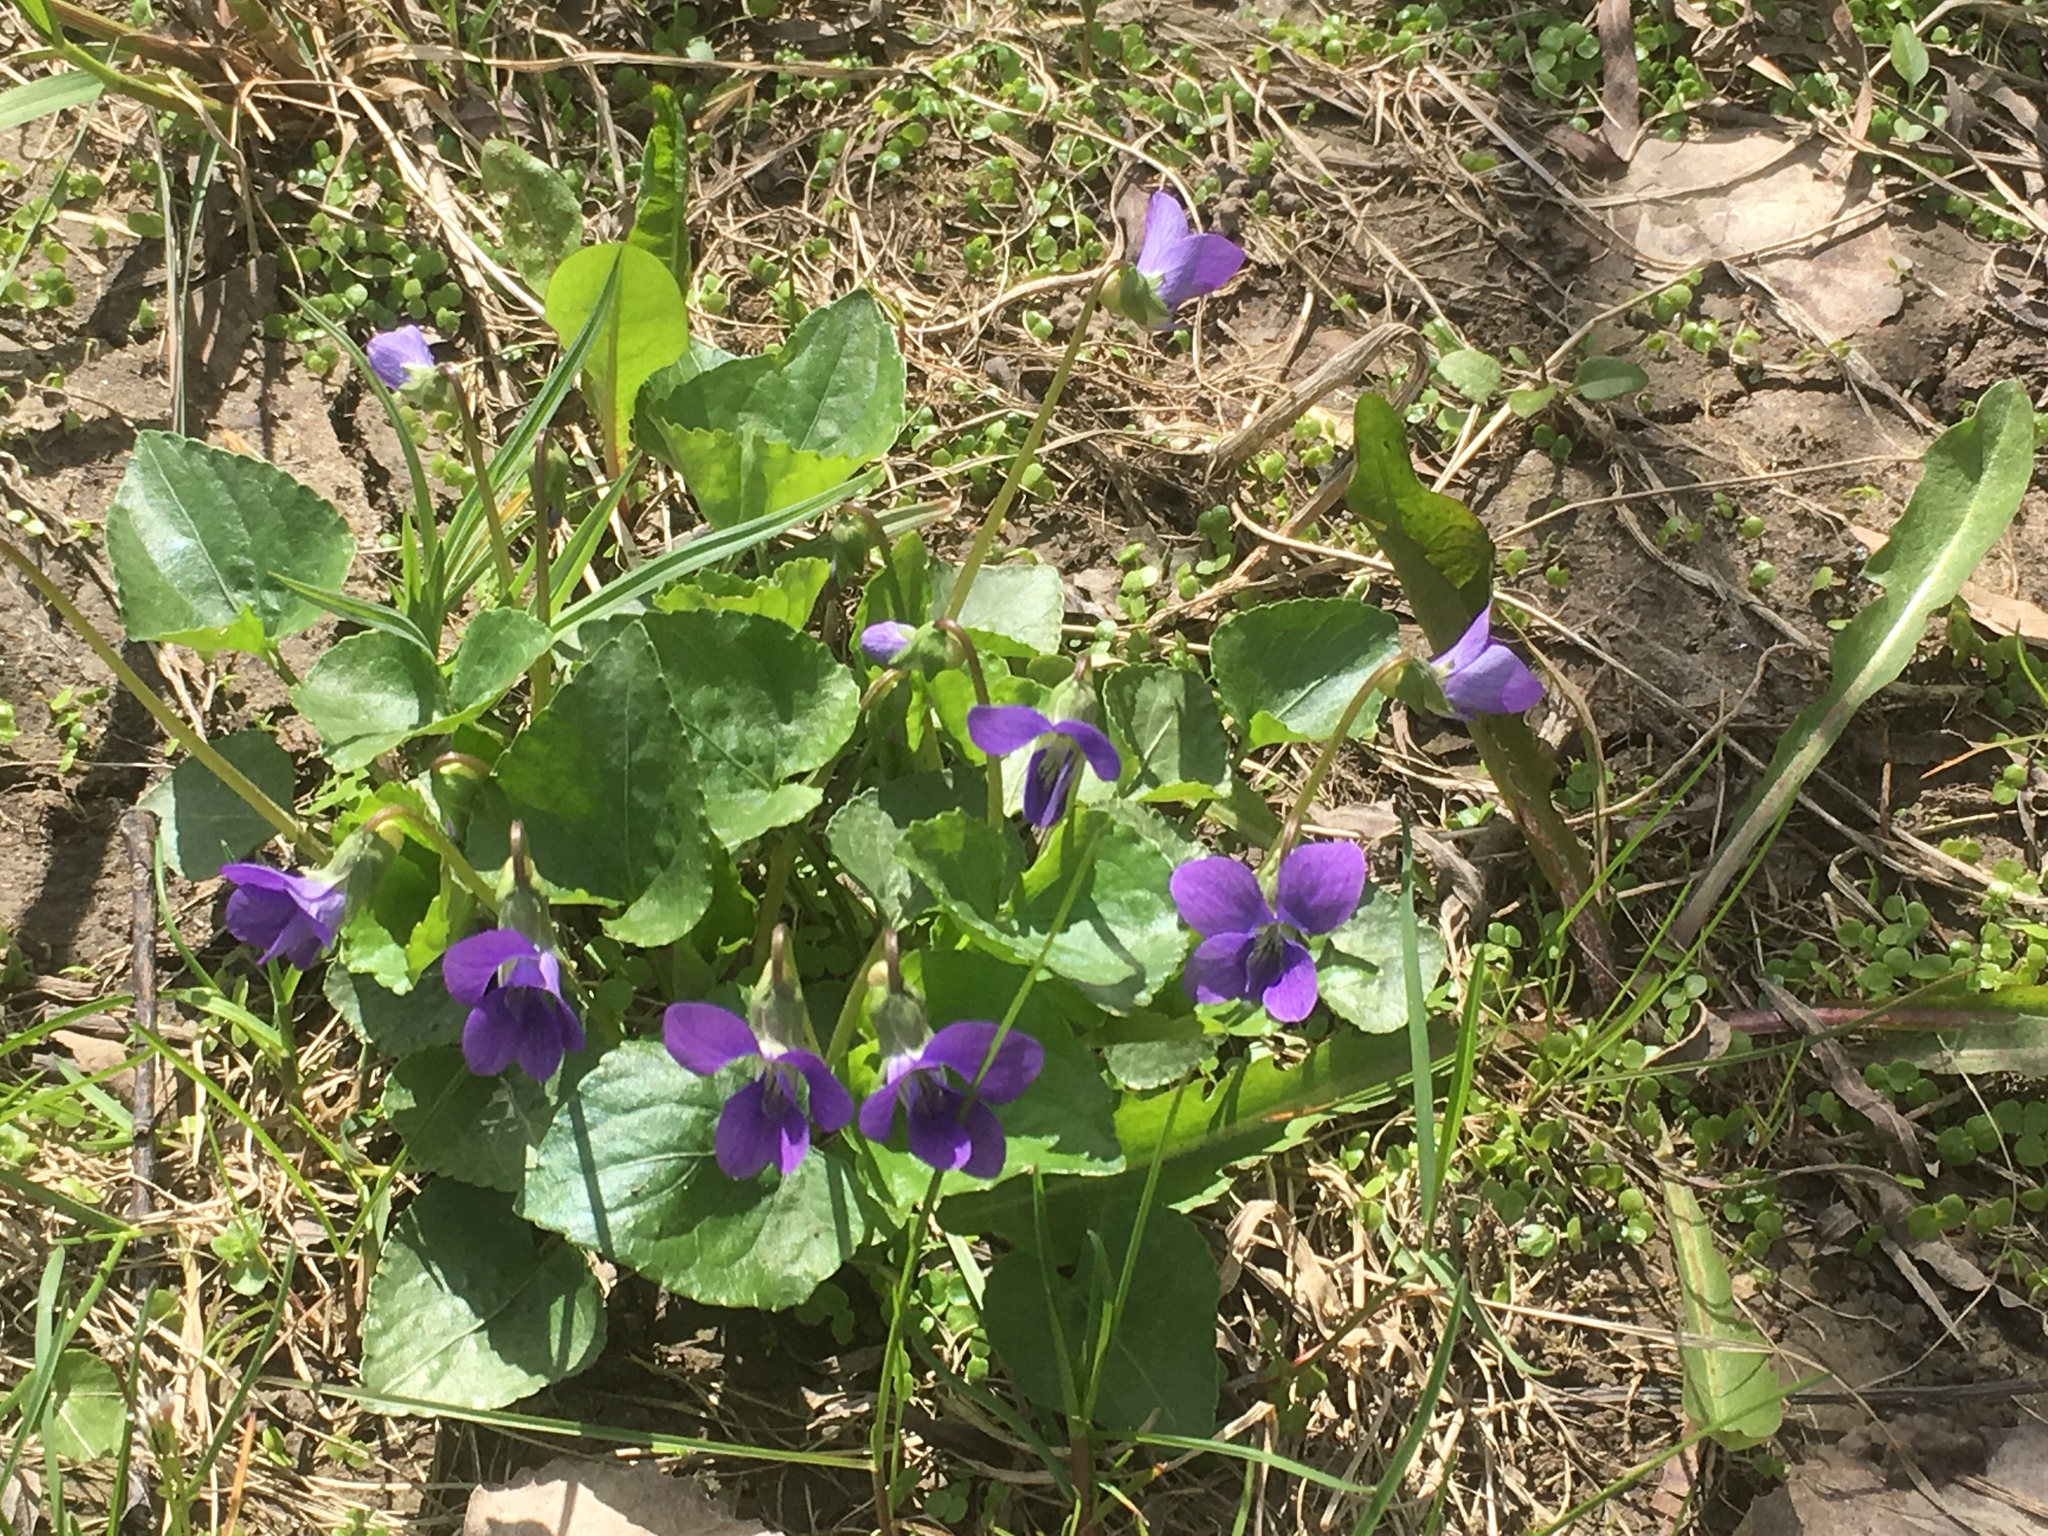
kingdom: Plantae
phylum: Tracheophyta
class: Magnoliopsida
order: Malpighiales
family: Violaceae
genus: Viola
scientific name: Viola sororia
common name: Dooryard violet
